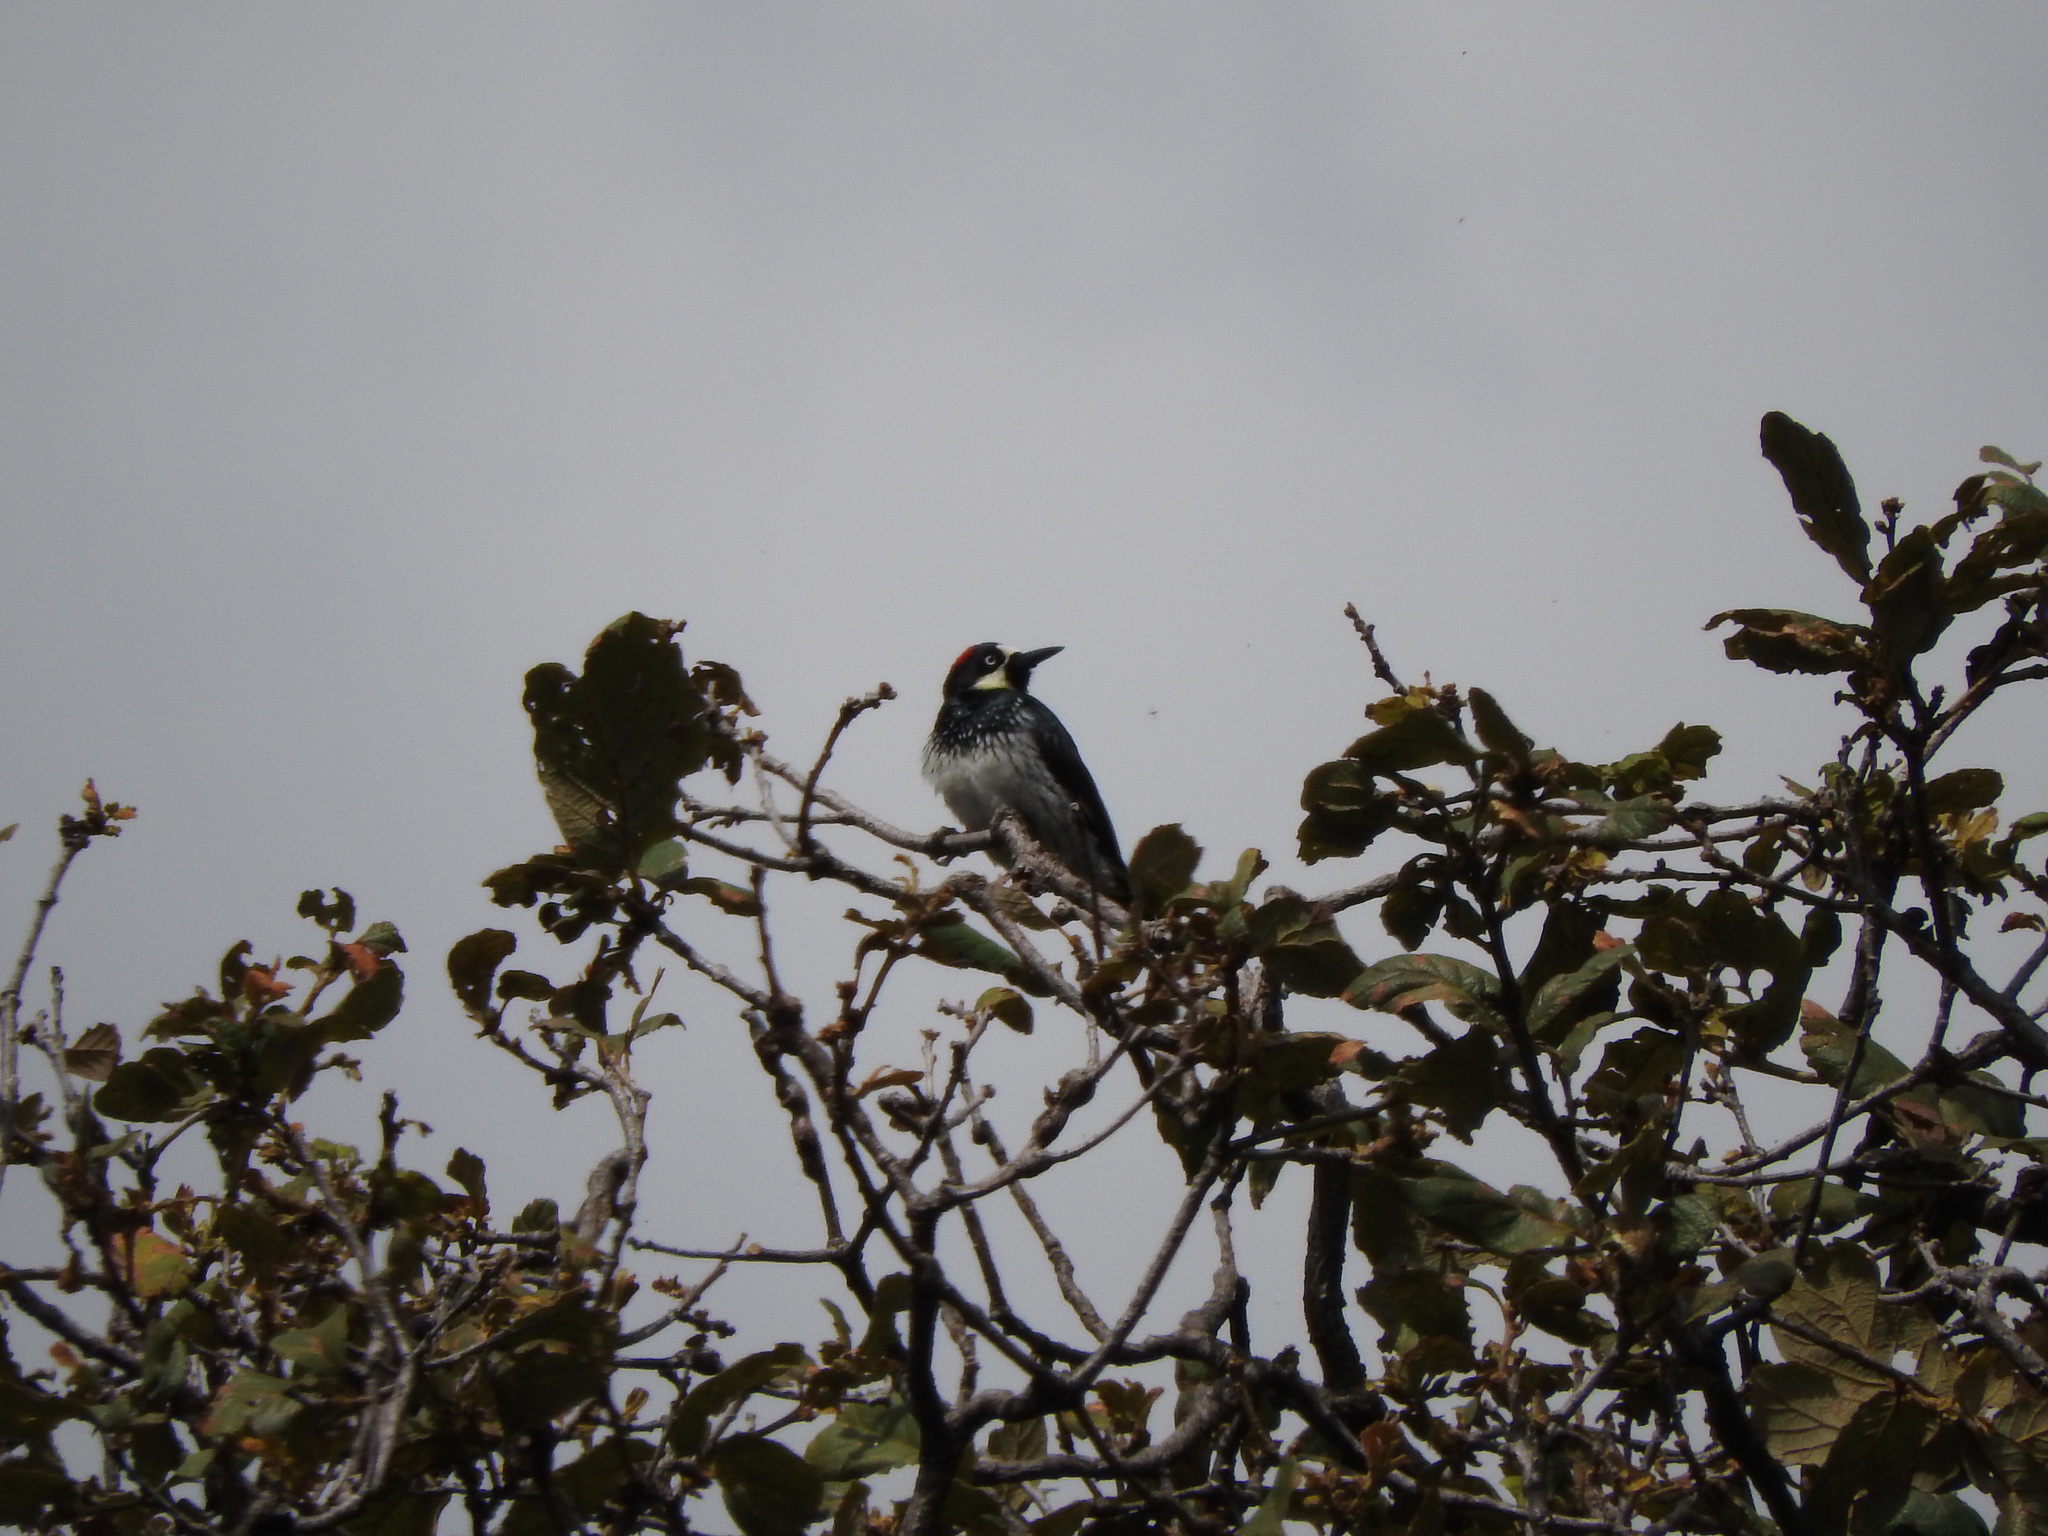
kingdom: Animalia
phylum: Chordata
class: Aves
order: Piciformes
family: Picidae
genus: Melanerpes
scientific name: Melanerpes formicivorus
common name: Acorn woodpecker
